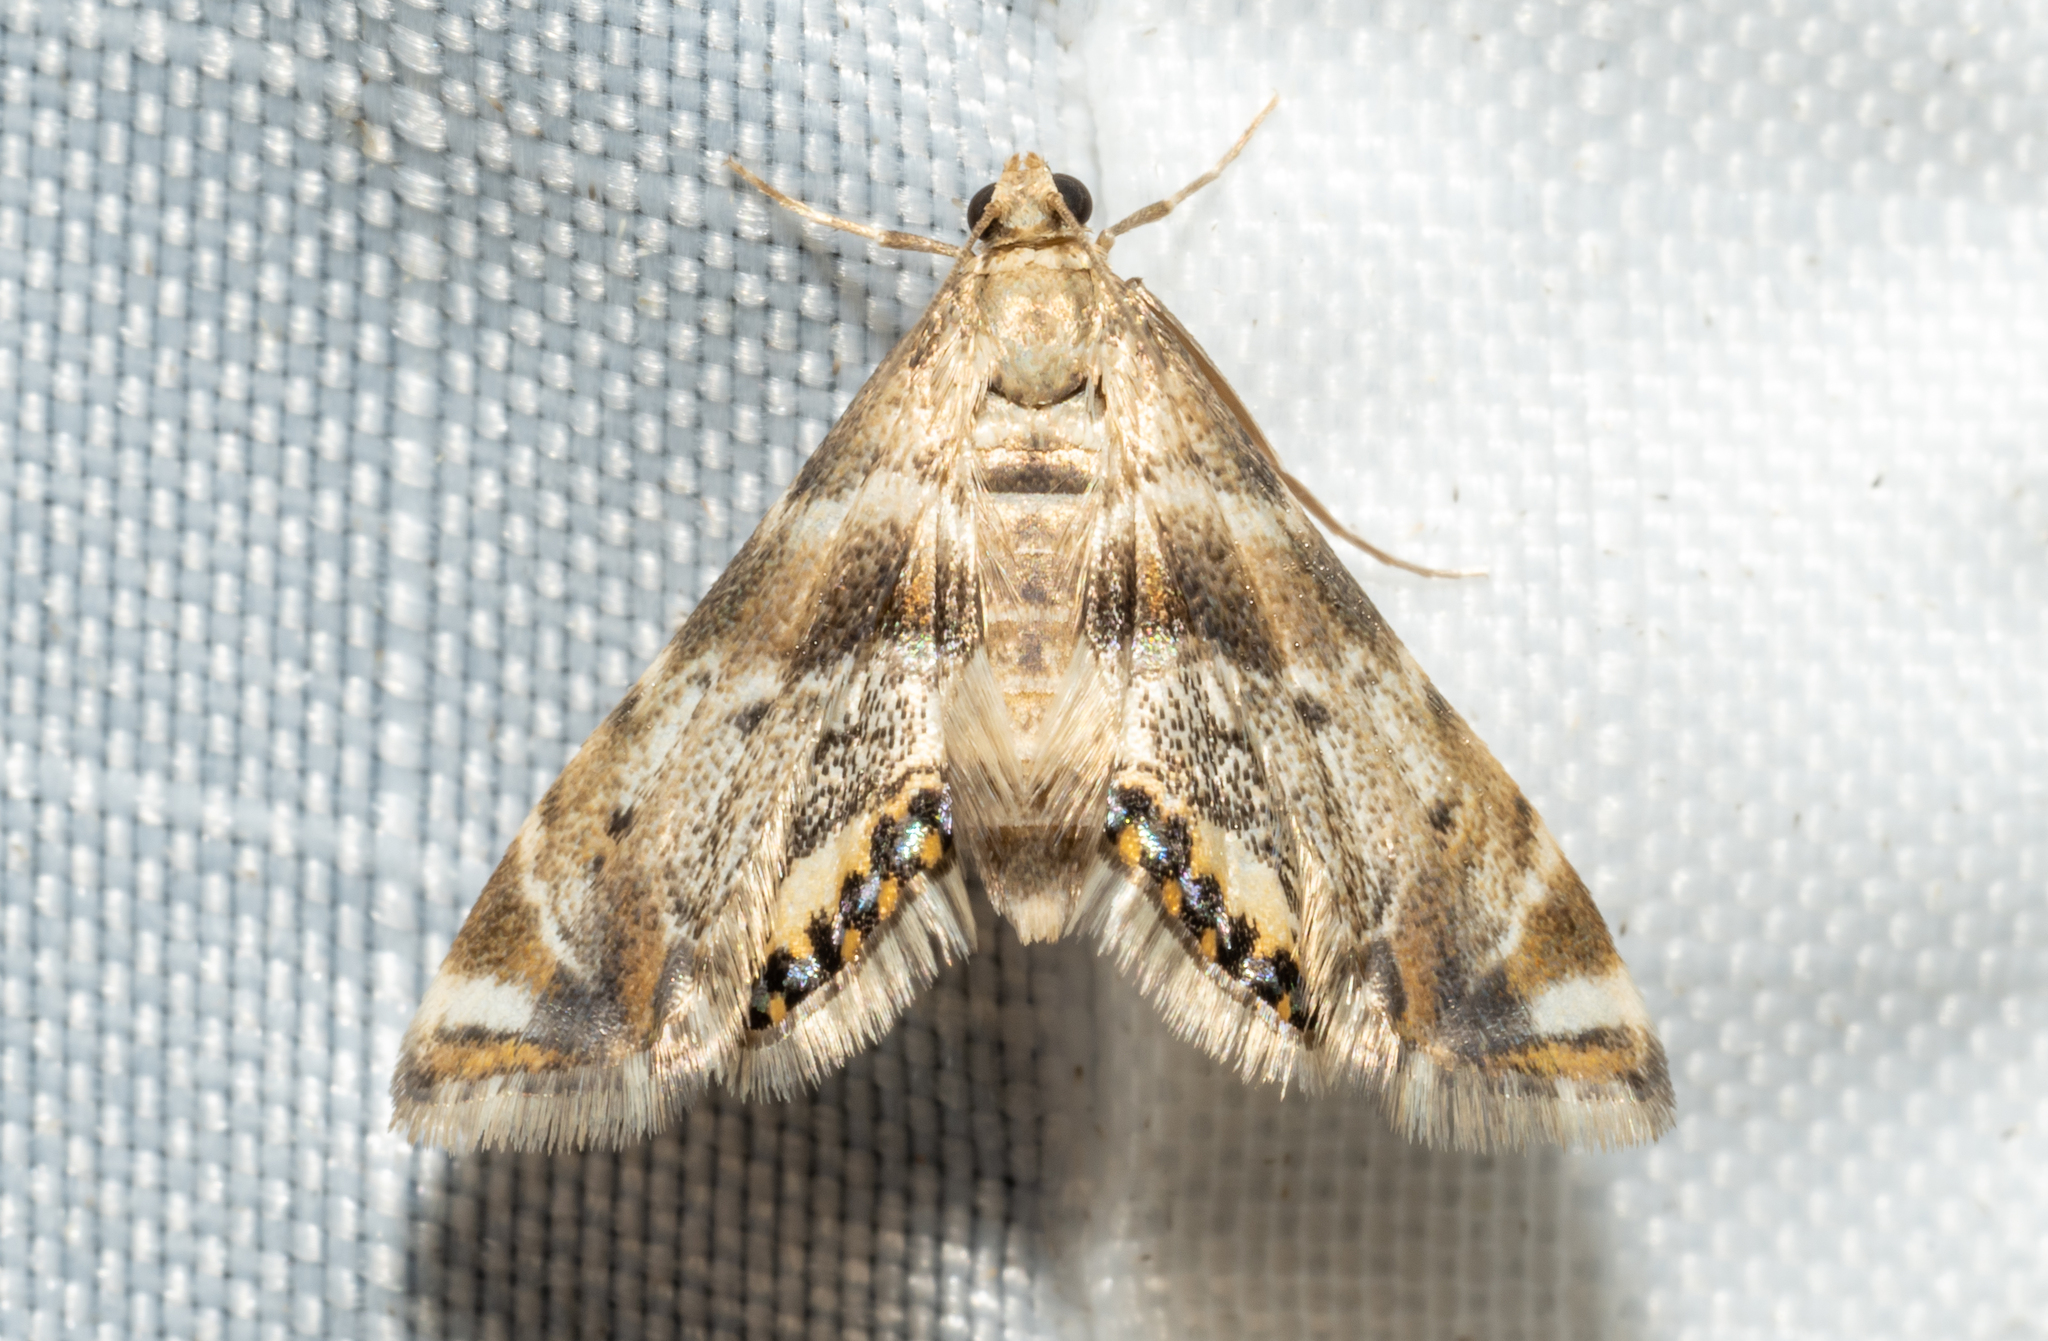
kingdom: Animalia
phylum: Arthropoda
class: Insecta
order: Lepidoptera
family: Crambidae
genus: Petrophila
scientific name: Petrophila fulicalis
